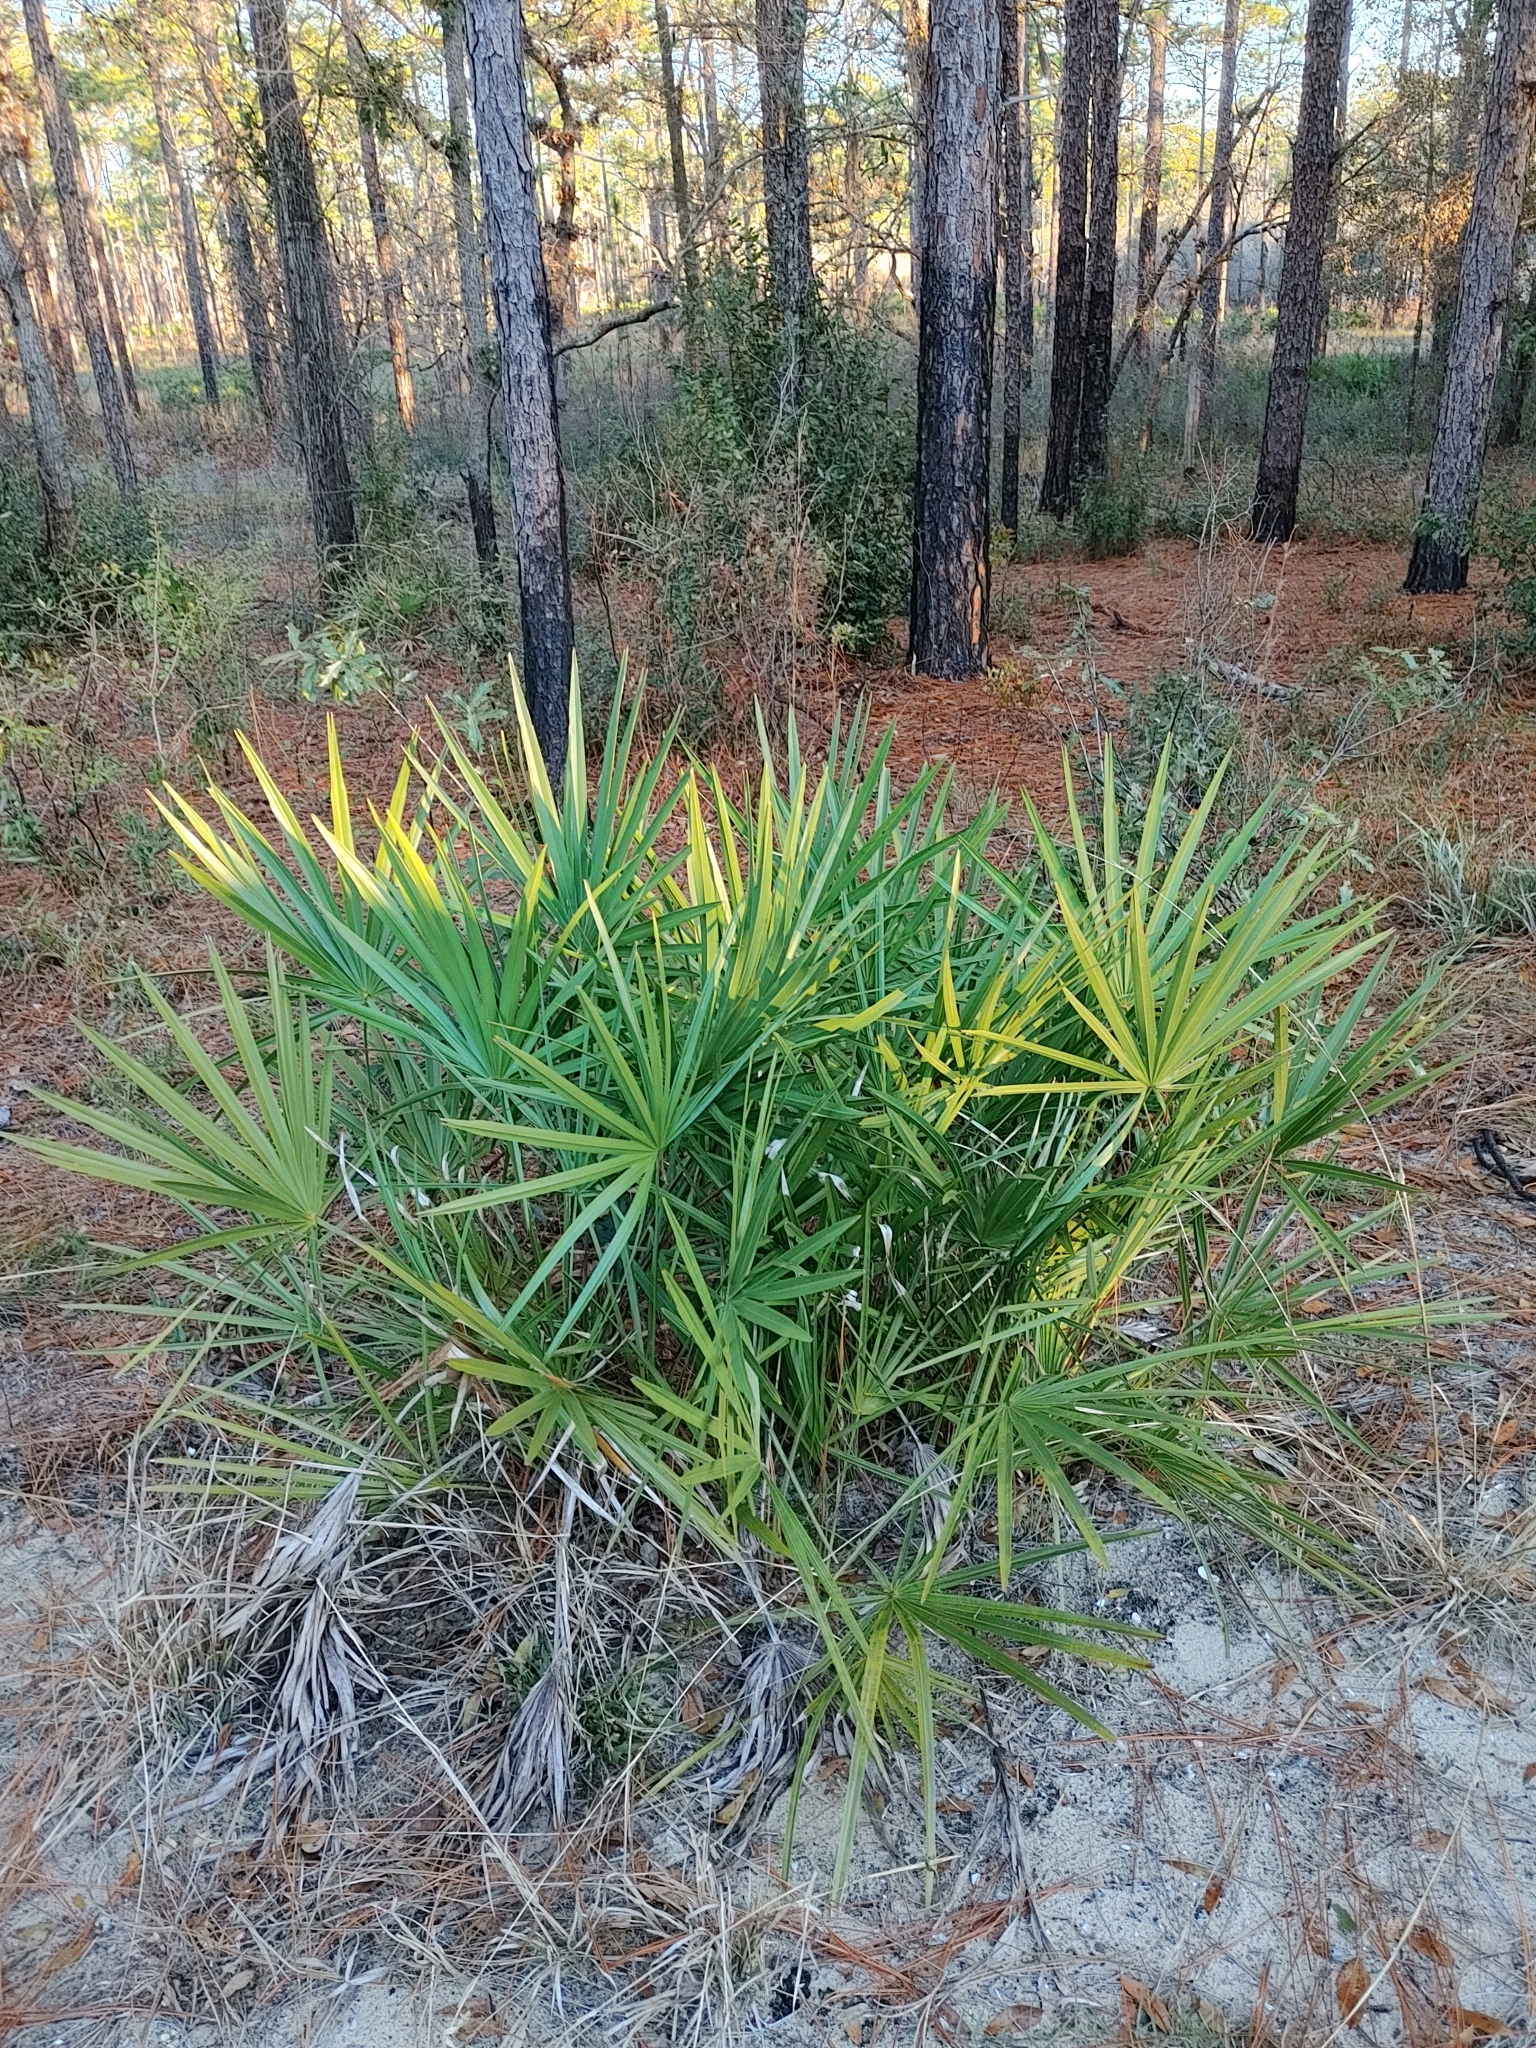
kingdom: Plantae
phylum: Tracheophyta
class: Liliopsida
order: Arecales
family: Arecaceae
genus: Serenoa
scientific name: Serenoa repens
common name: Saw-palmetto
